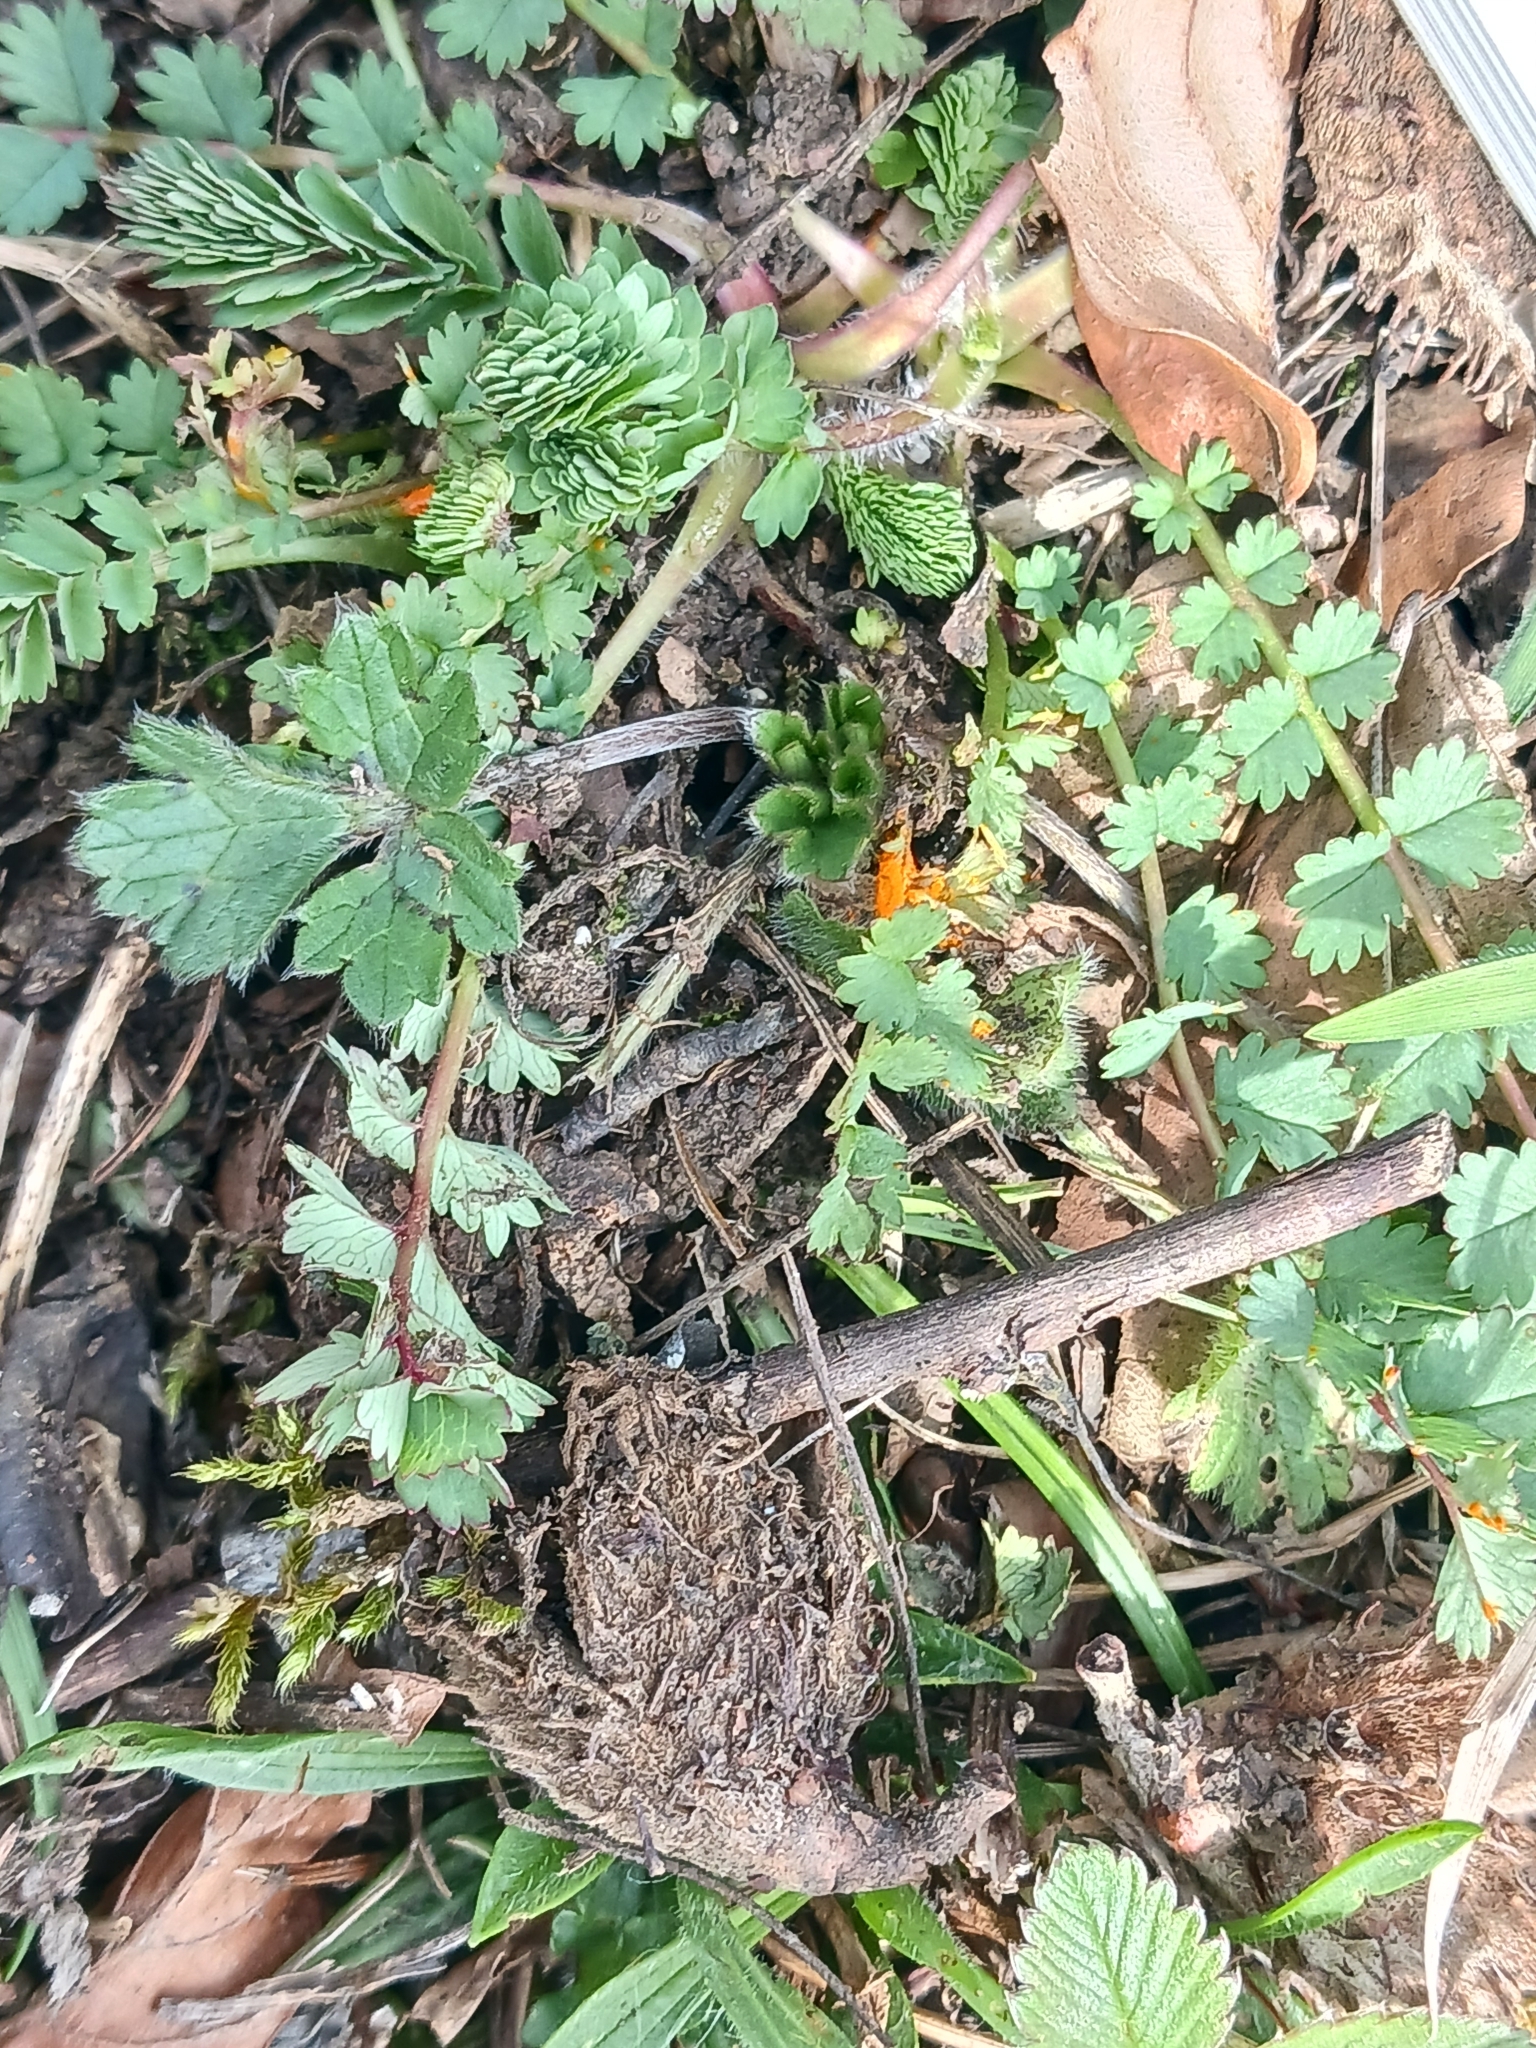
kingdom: Fungi
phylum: Basidiomycota
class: Pucciniomycetes
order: Pucciniales
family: Phragmidiaceae
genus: Phragmidium
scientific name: Phragmidium sanguisorbae
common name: Salad burnet rust
